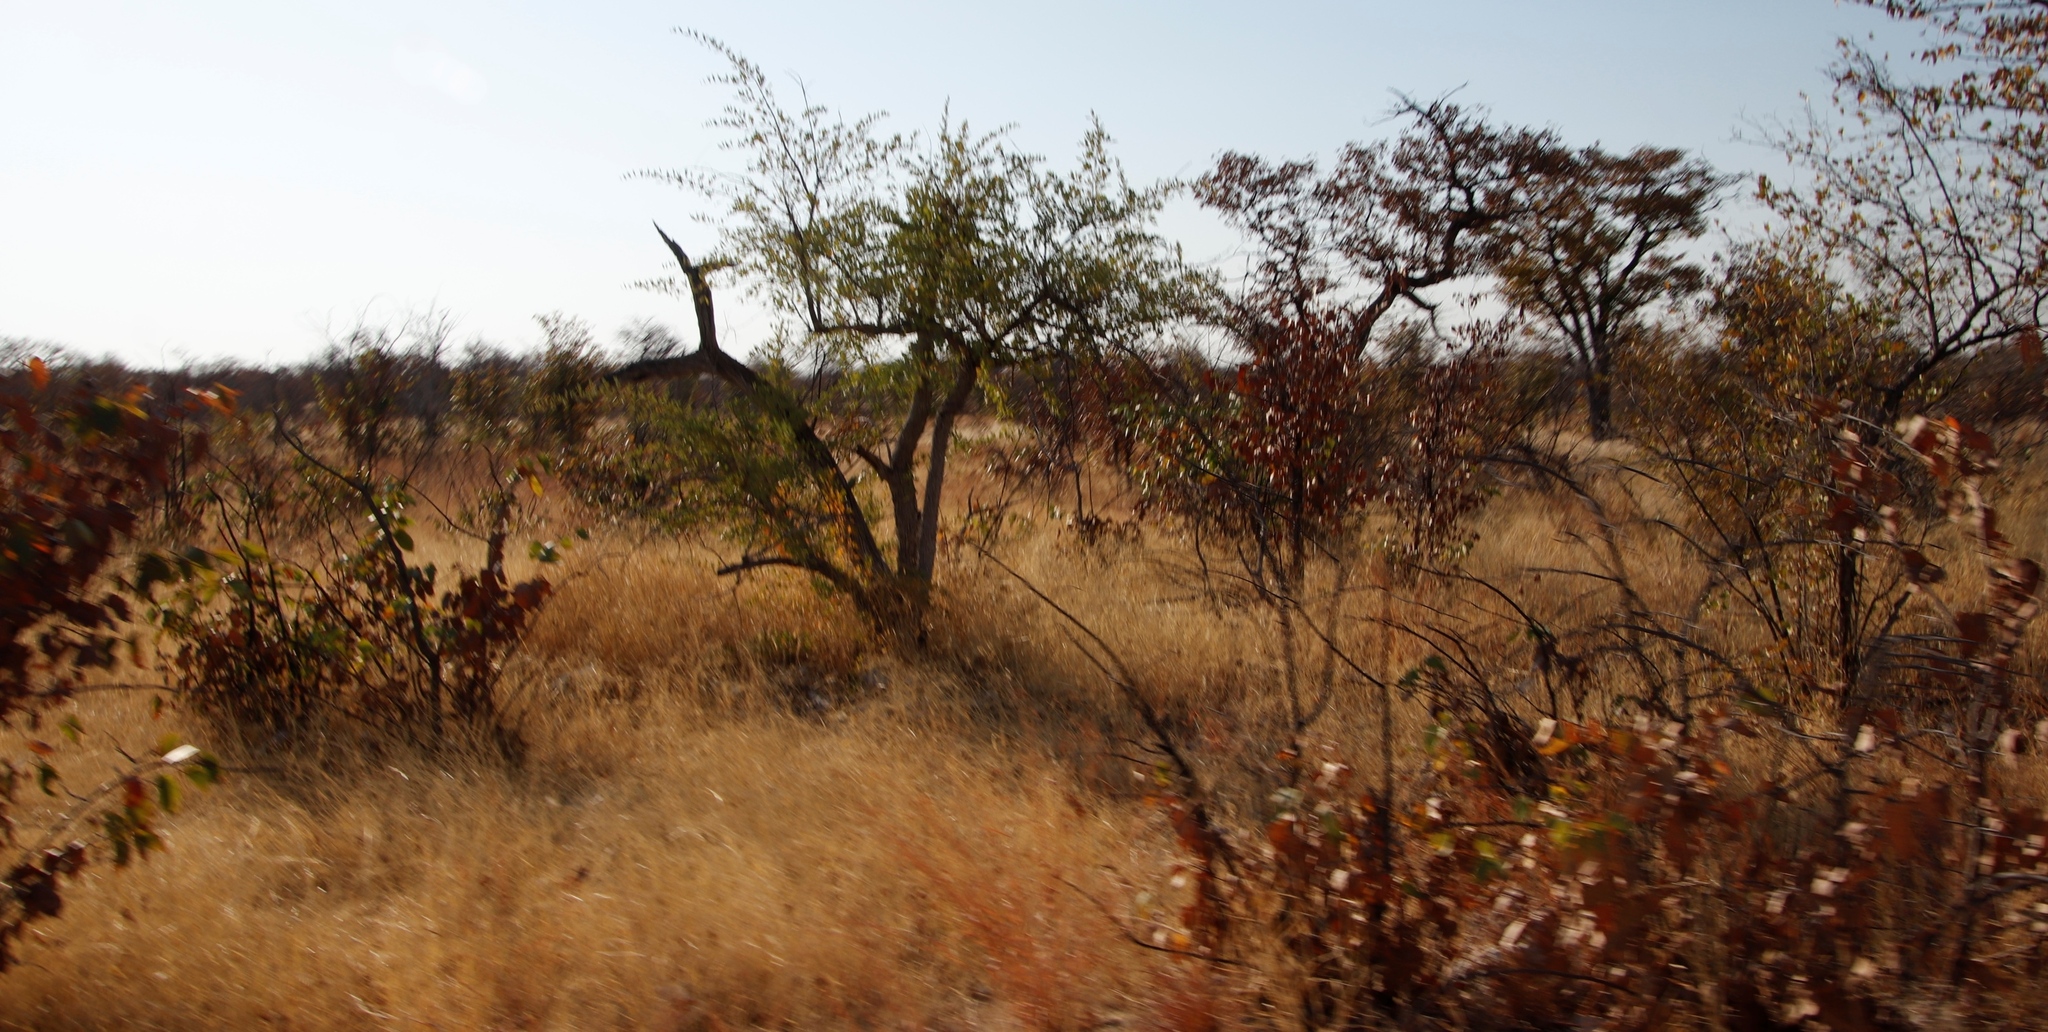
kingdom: Plantae
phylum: Tracheophyta
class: Magnoliopsida
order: Fabales
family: Fabaceae
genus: Colophospermum
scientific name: Colophospermum mopane
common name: Mopane
